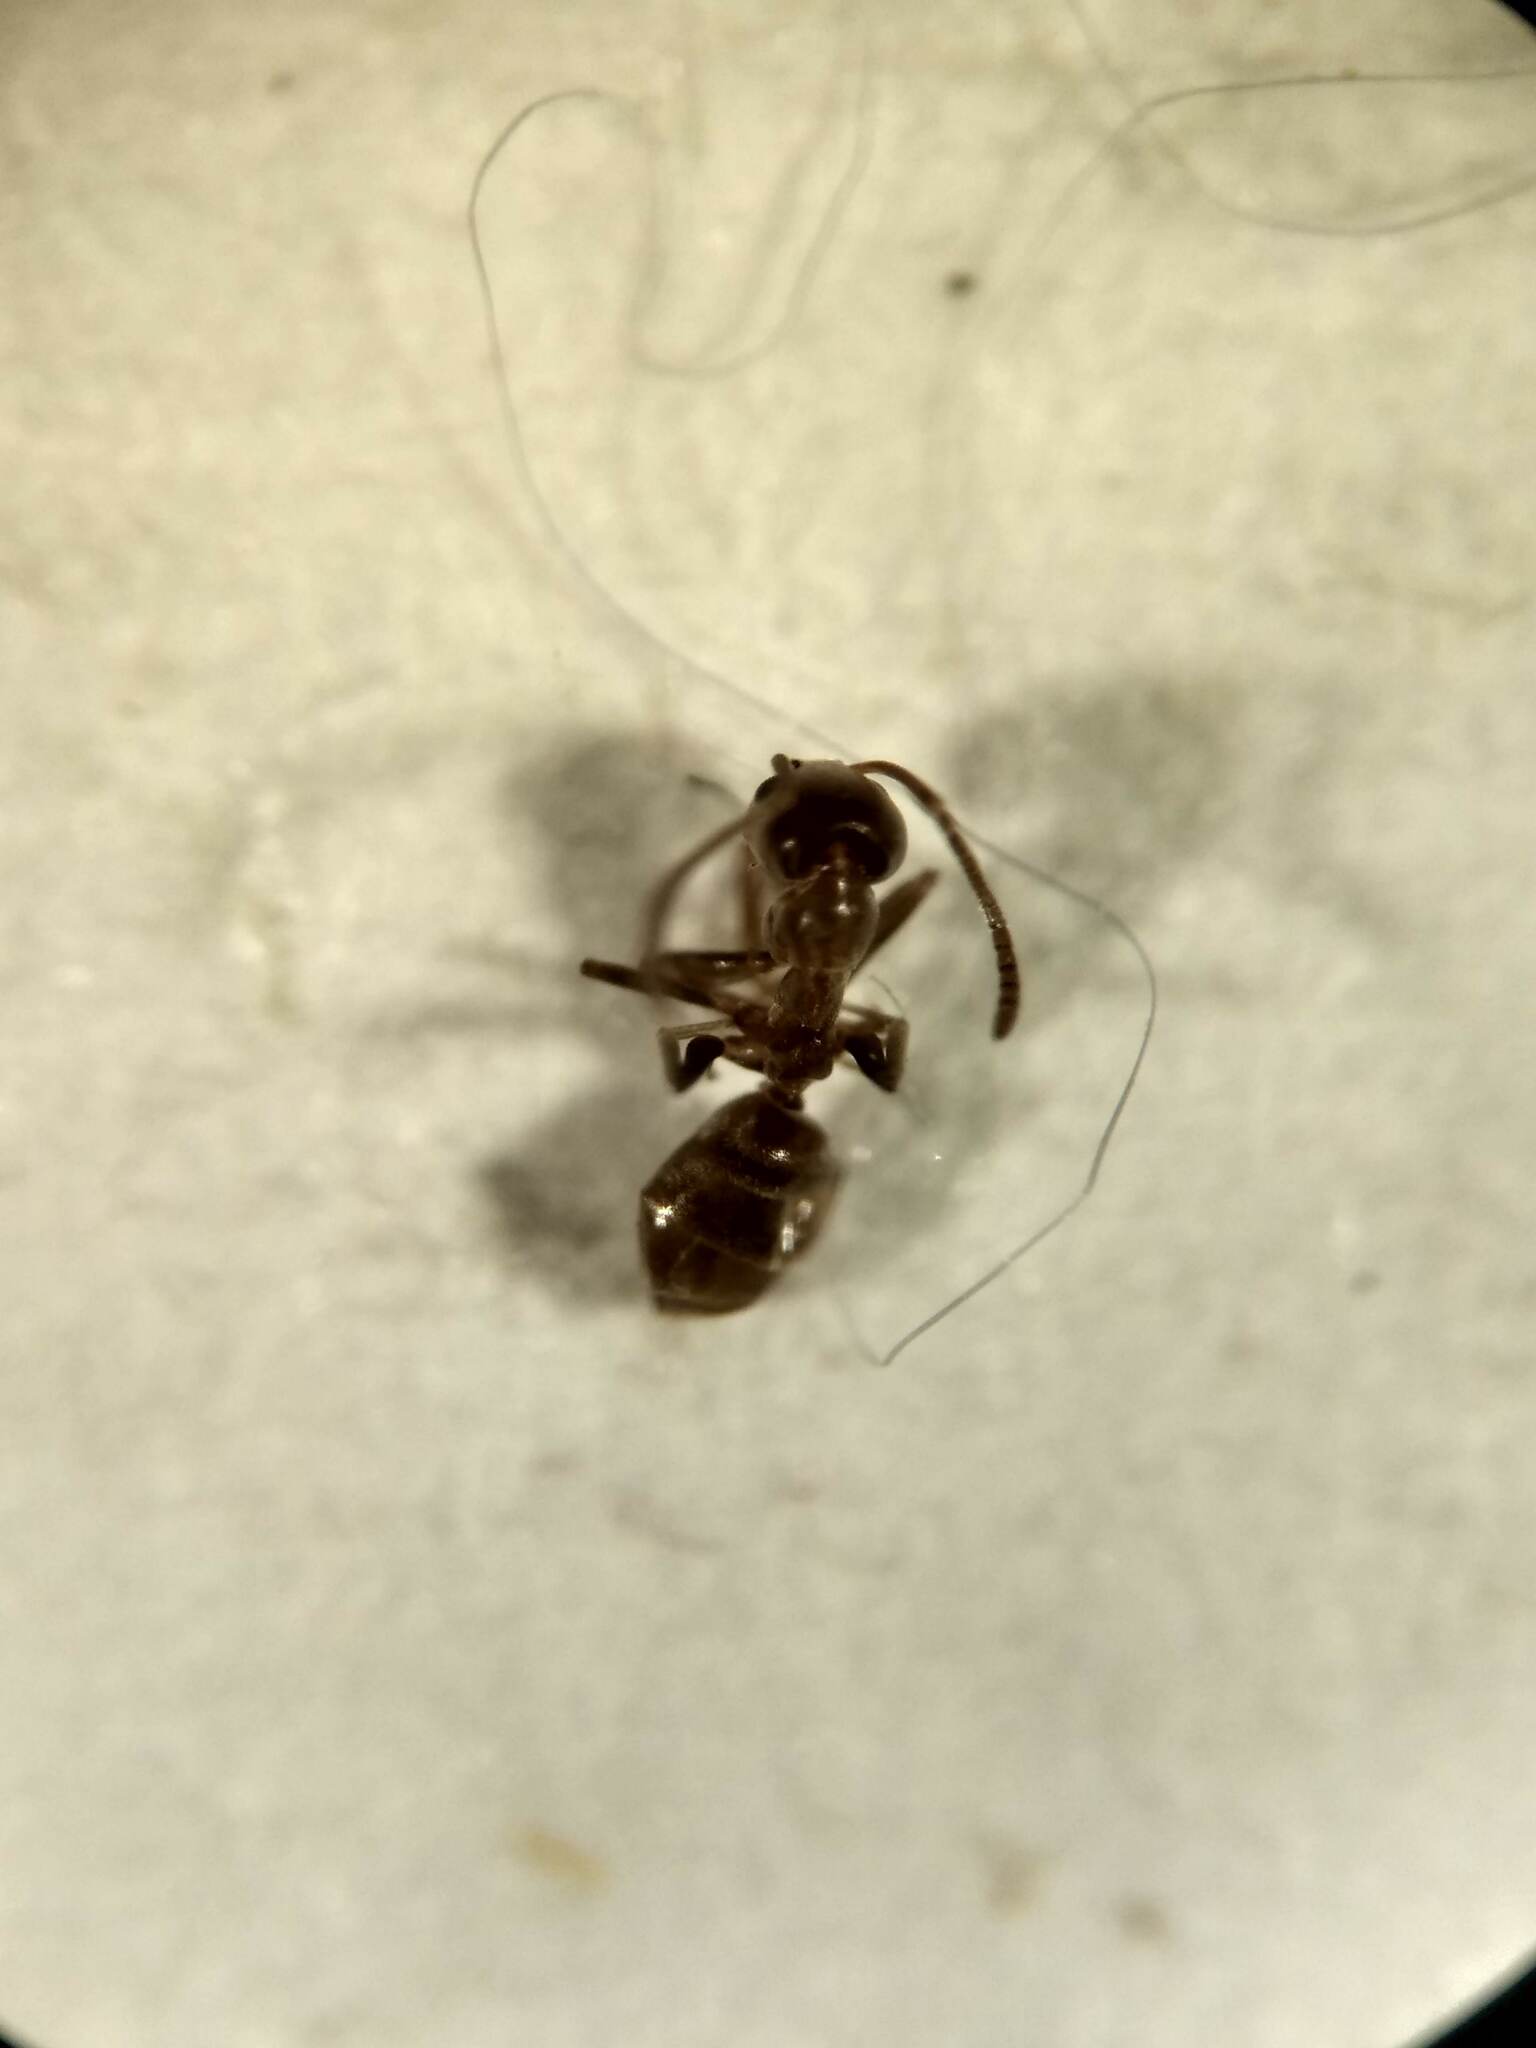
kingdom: Animalia
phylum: Arthropoda
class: Insecta
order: Hymenoptera
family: Formicidae
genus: Linepithema
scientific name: Linepithema humile
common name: Argentine ant
